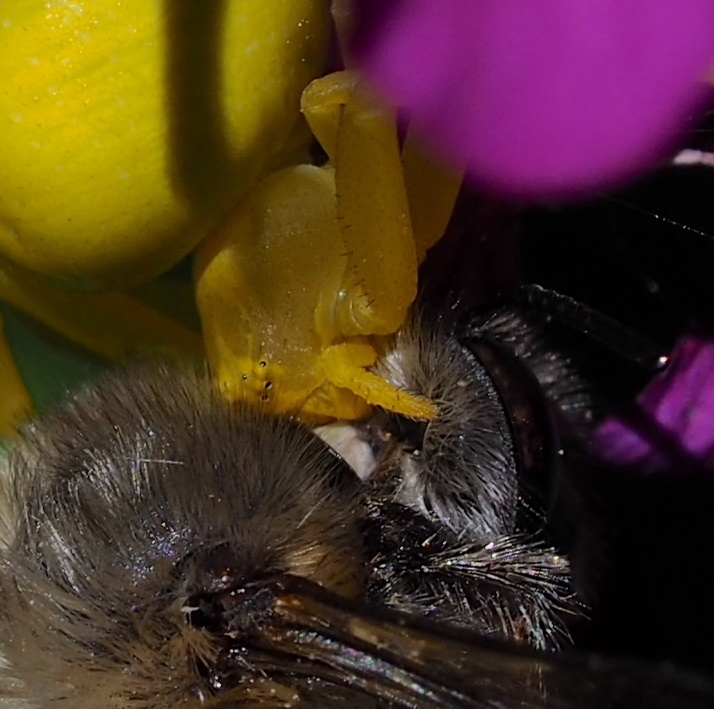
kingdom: Animalia
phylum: Arthropoda
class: Arachnida
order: Araneae
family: Thomisidae
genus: Misumena
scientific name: Misumena vatia
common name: Goldenrod crab spider
